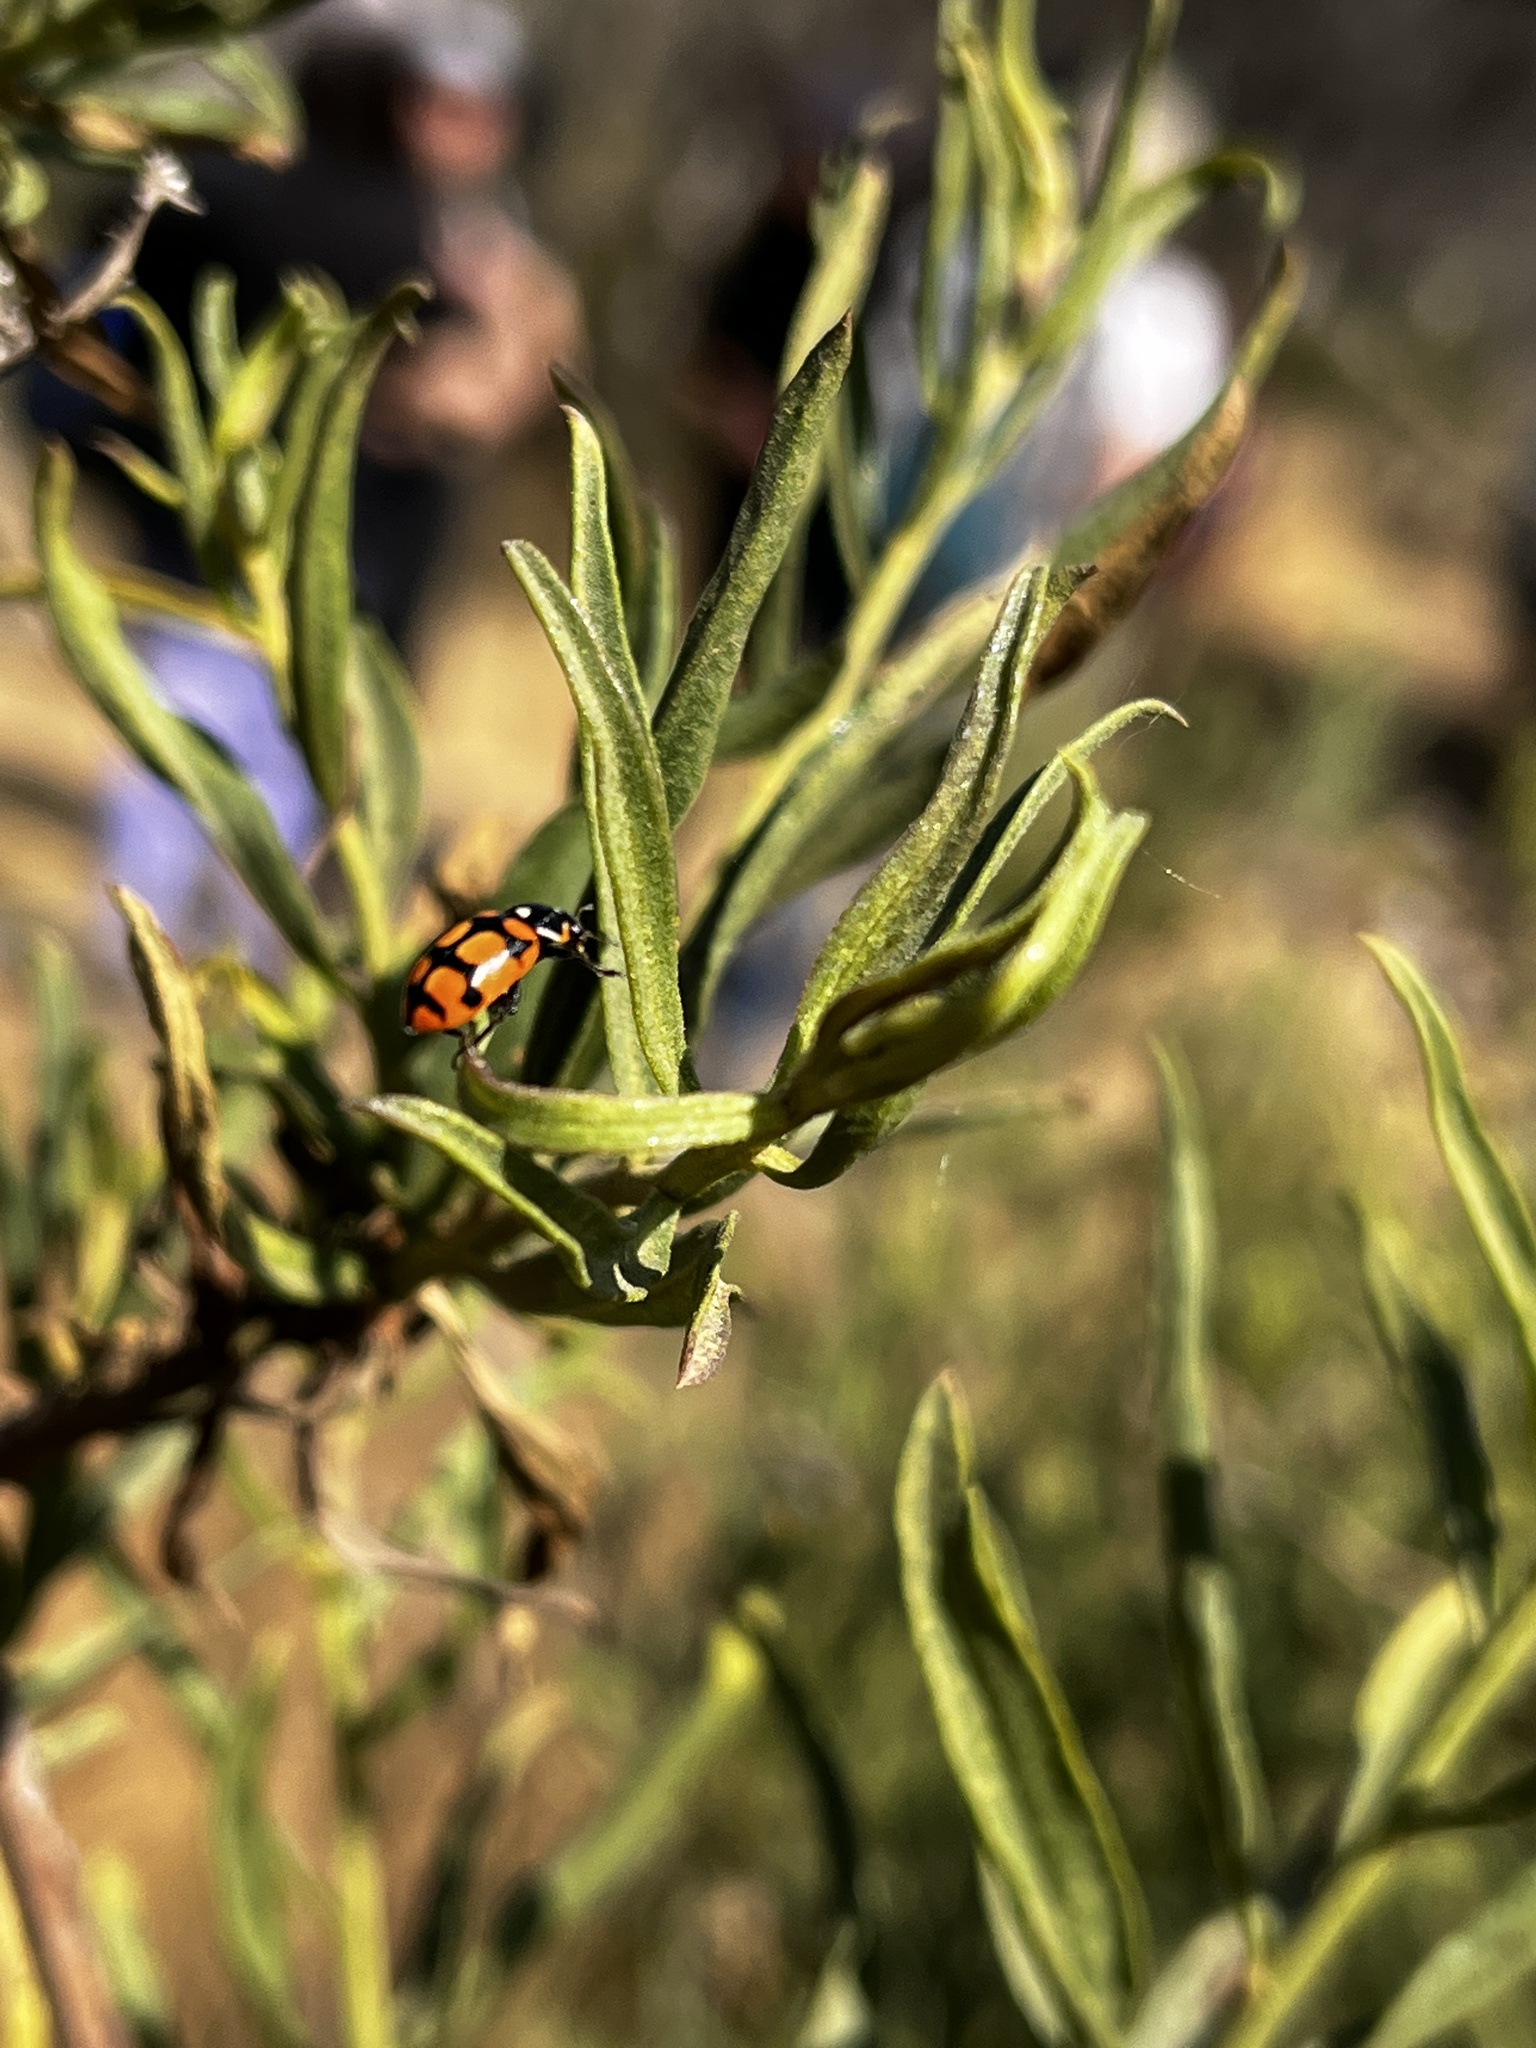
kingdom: Animalia
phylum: Arthropoda
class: Insecta
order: Coleoptera
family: Coccinellidae
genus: Eriopis
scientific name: Eriopis chilensis
